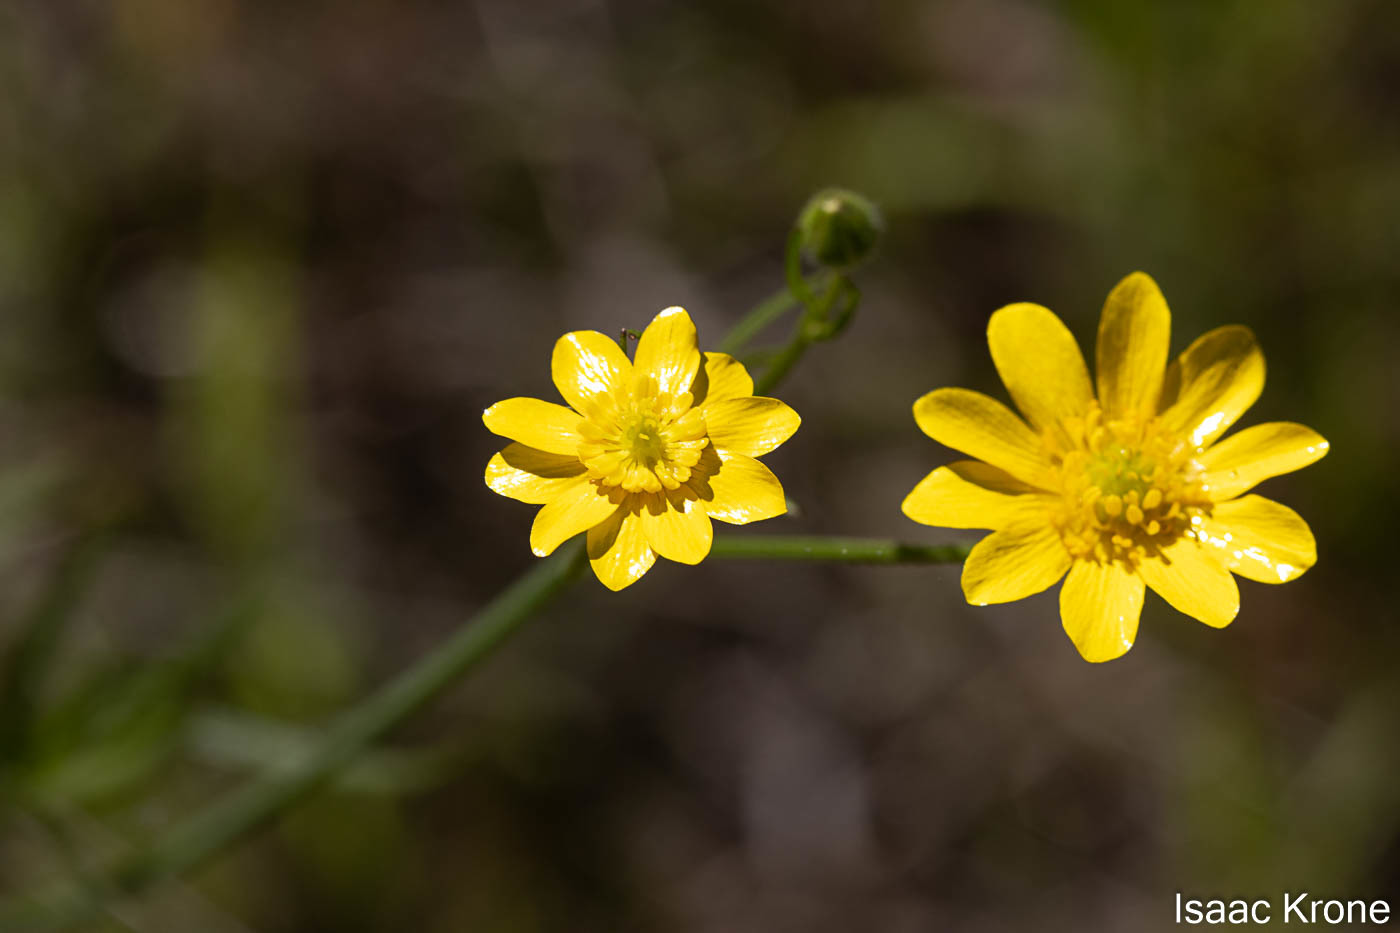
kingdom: Plantae
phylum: Tracheophyta
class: Magnoliopsida
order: Ranunculales
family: Ranunculaceae
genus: Ranunculus
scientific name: Ranunculus californicus
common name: California buttercup
